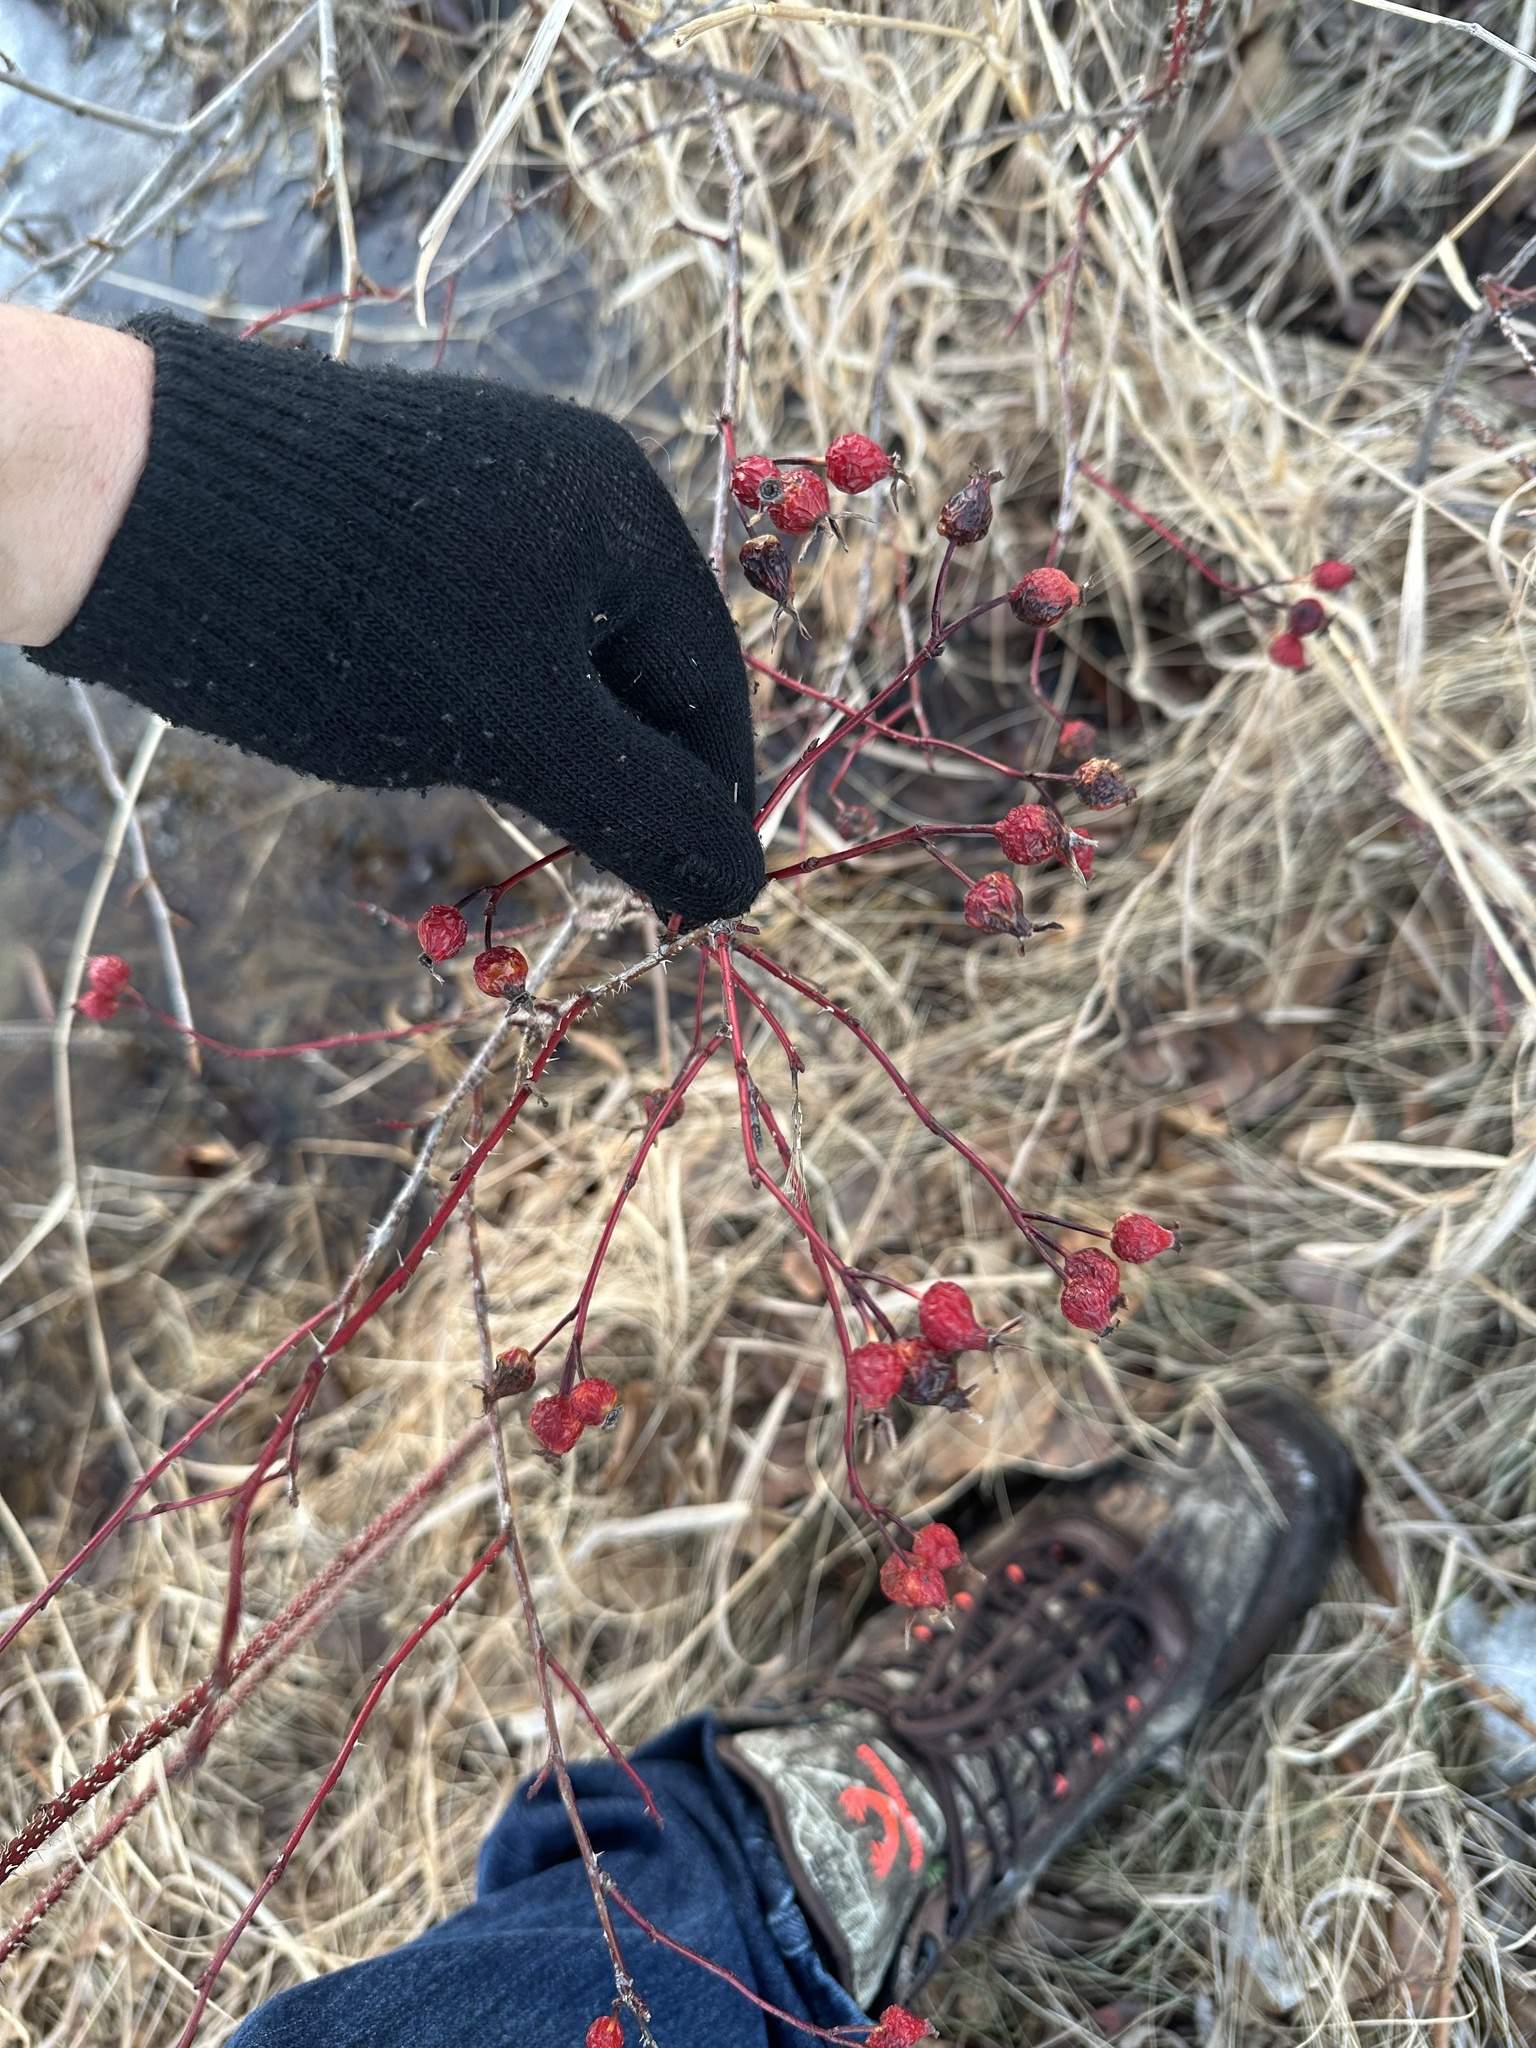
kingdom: Plantae
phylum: Tracheophyta
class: Magnoliopsida
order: Rosales
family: Rosaceae
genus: Rosa
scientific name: Rosa woodsii
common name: Woods's rose
